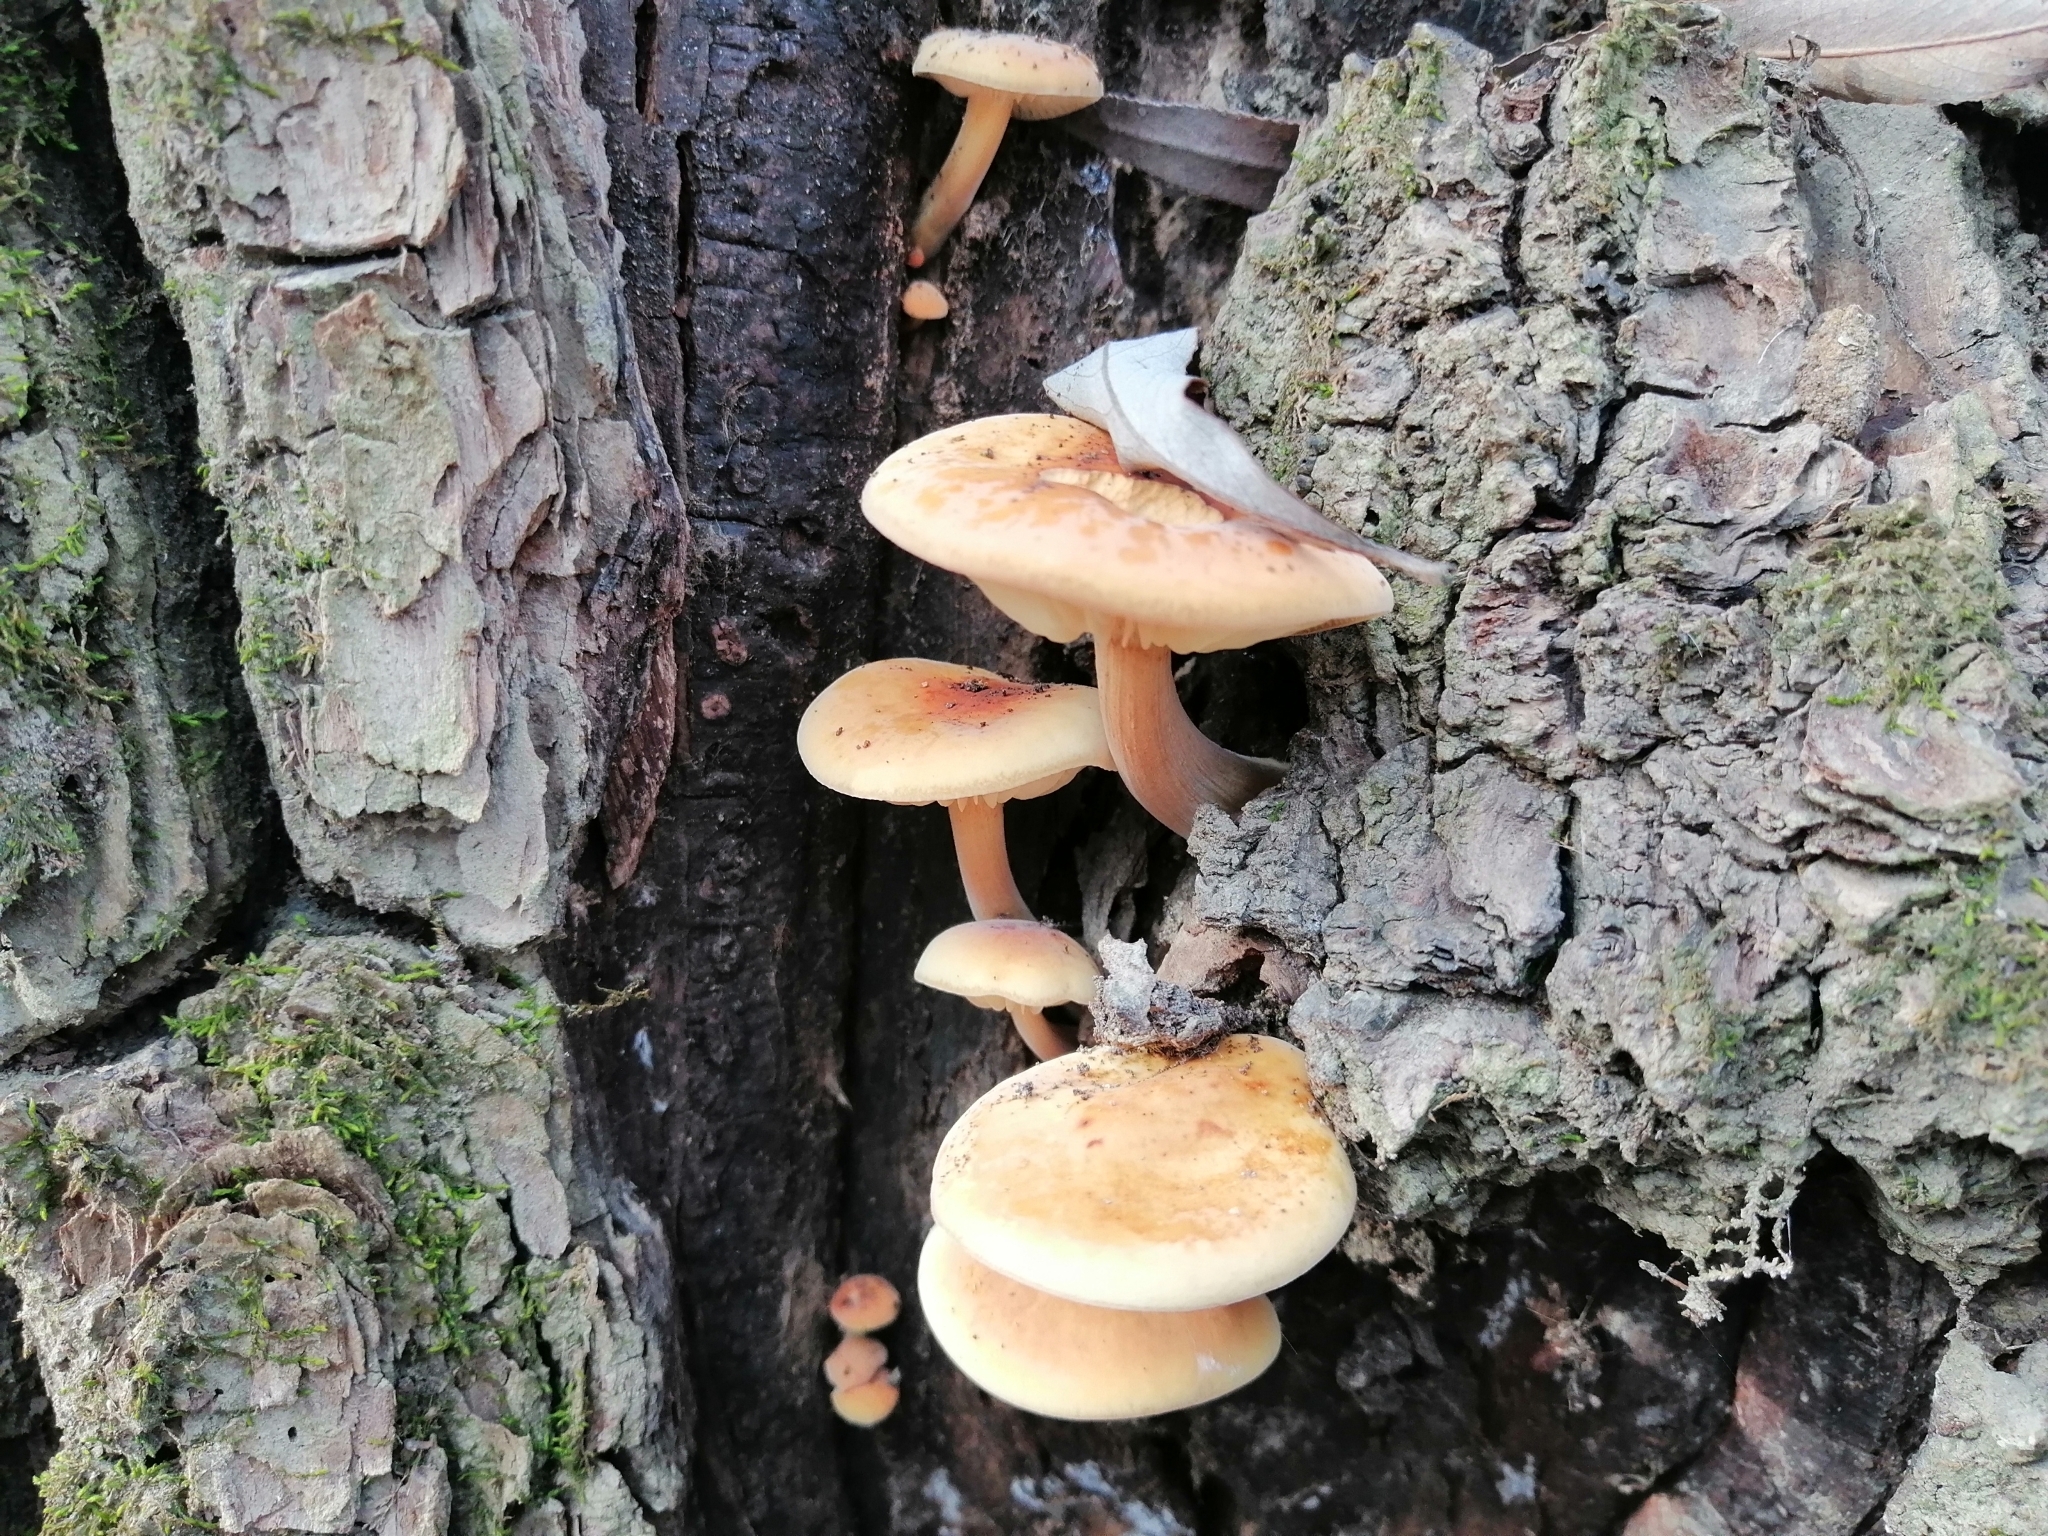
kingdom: Fungi
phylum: Basidiomycota
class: Agaricomycetes
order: Agaricales
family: Physalacriaceae
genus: Flammulina
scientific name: Flammulina
